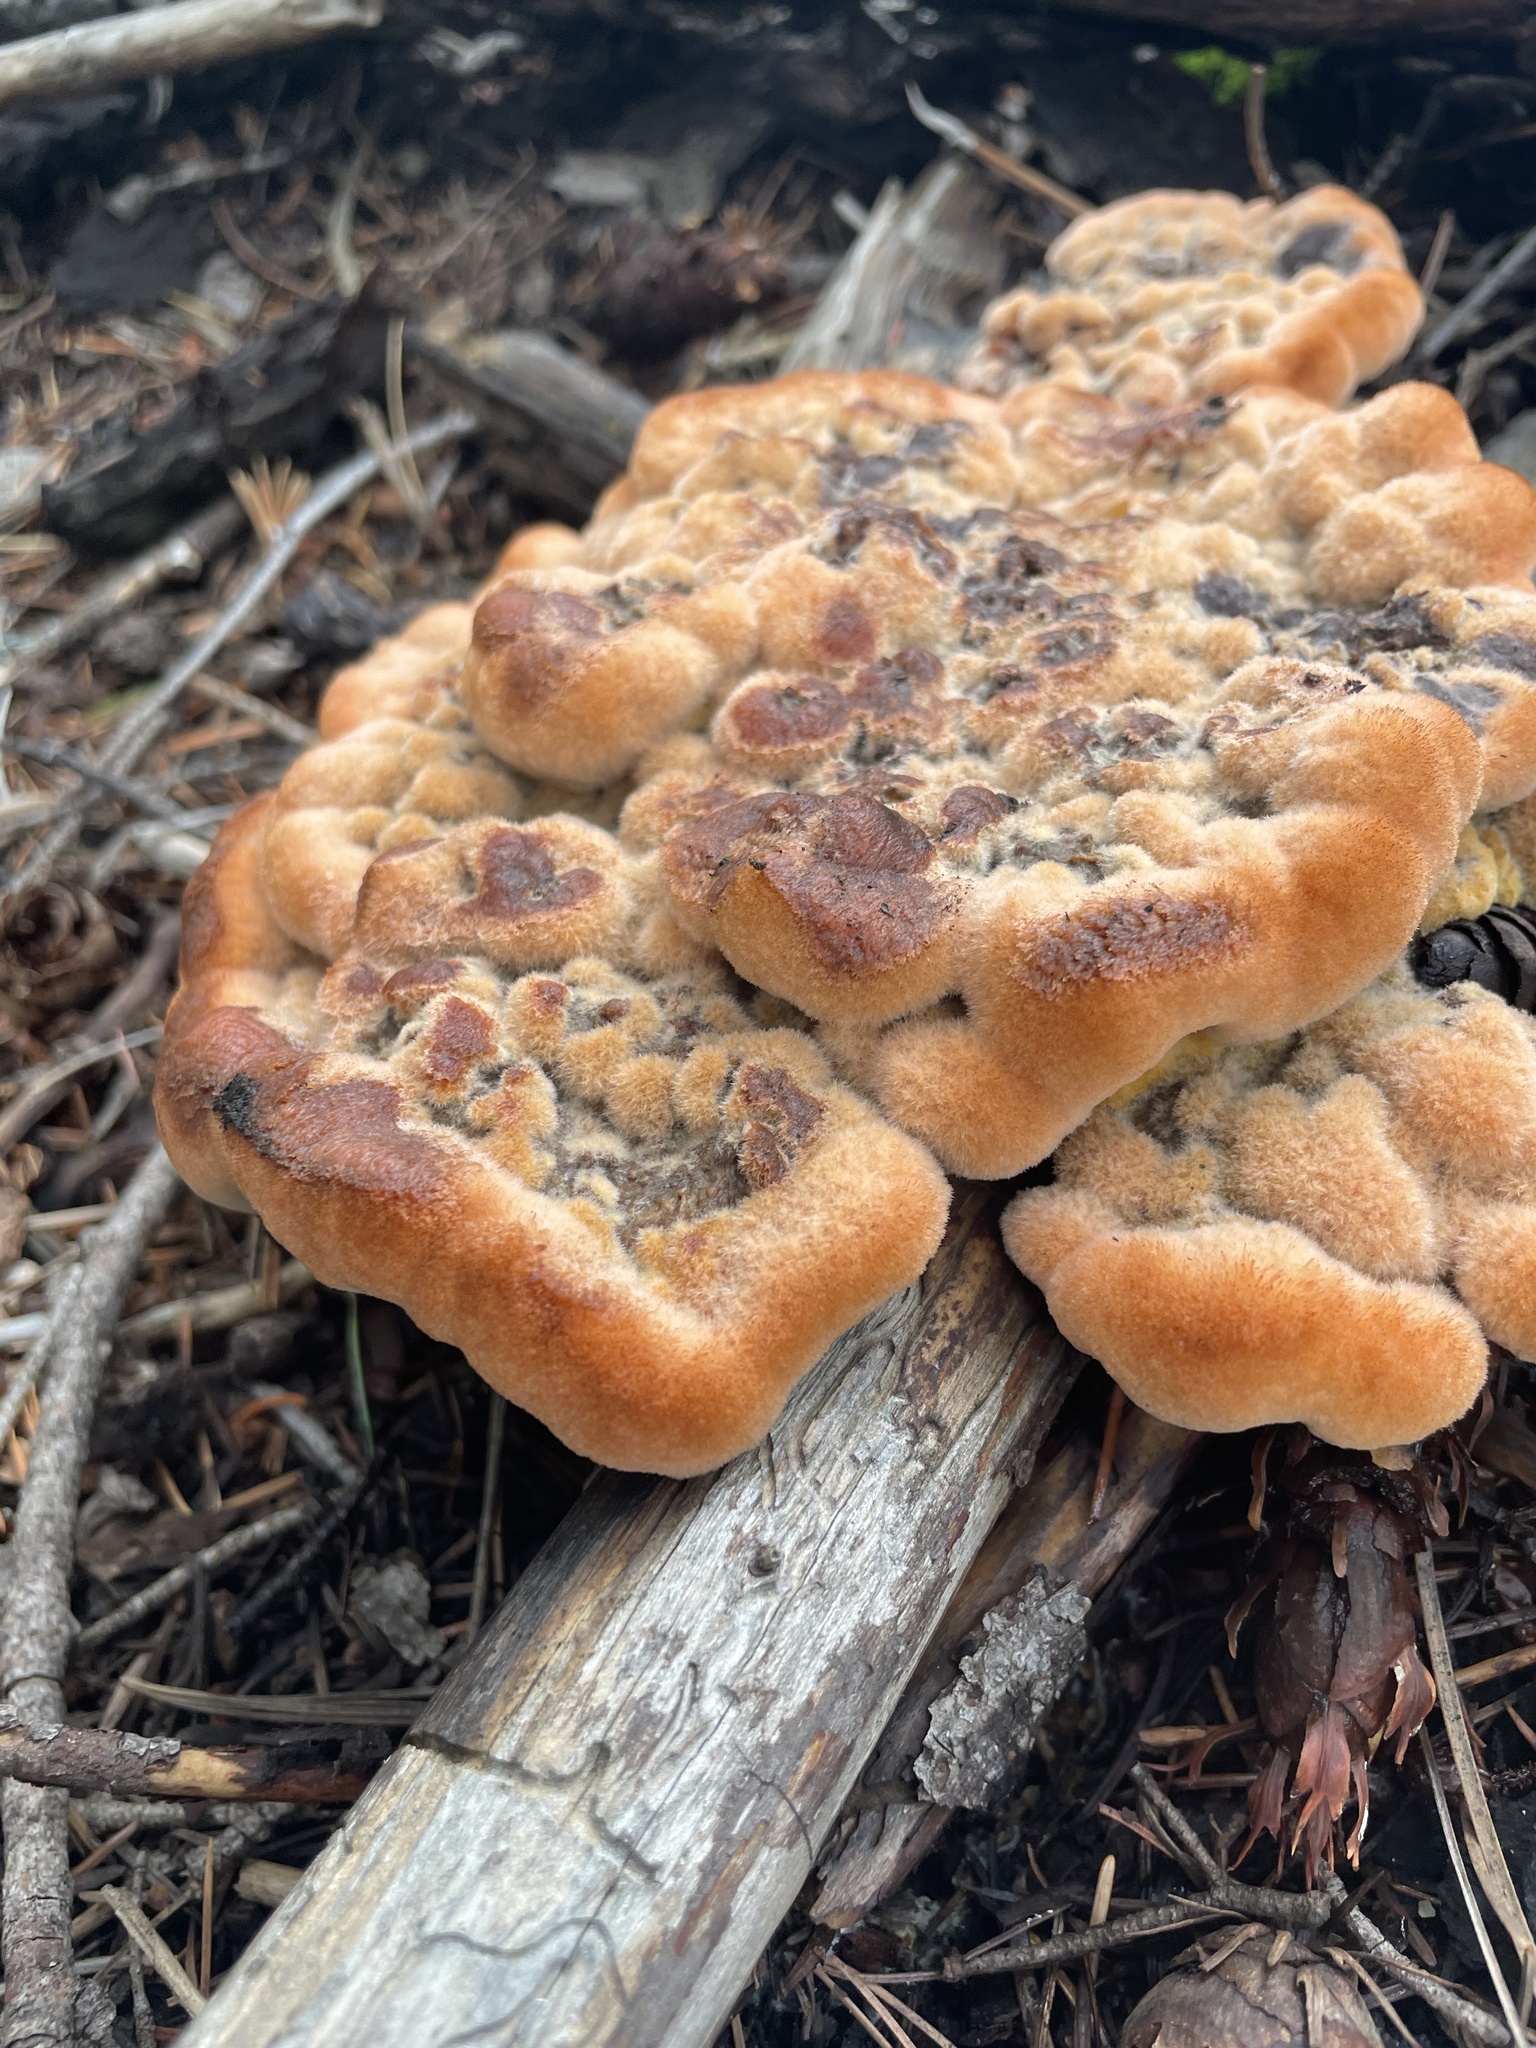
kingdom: Fungi
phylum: Basidiomycota
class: Agaricomycetes
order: Polyporales
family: Laetiporaceae
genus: Phaeolus
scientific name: Phaeolus schweinitzii
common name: Dyer's mazegill
